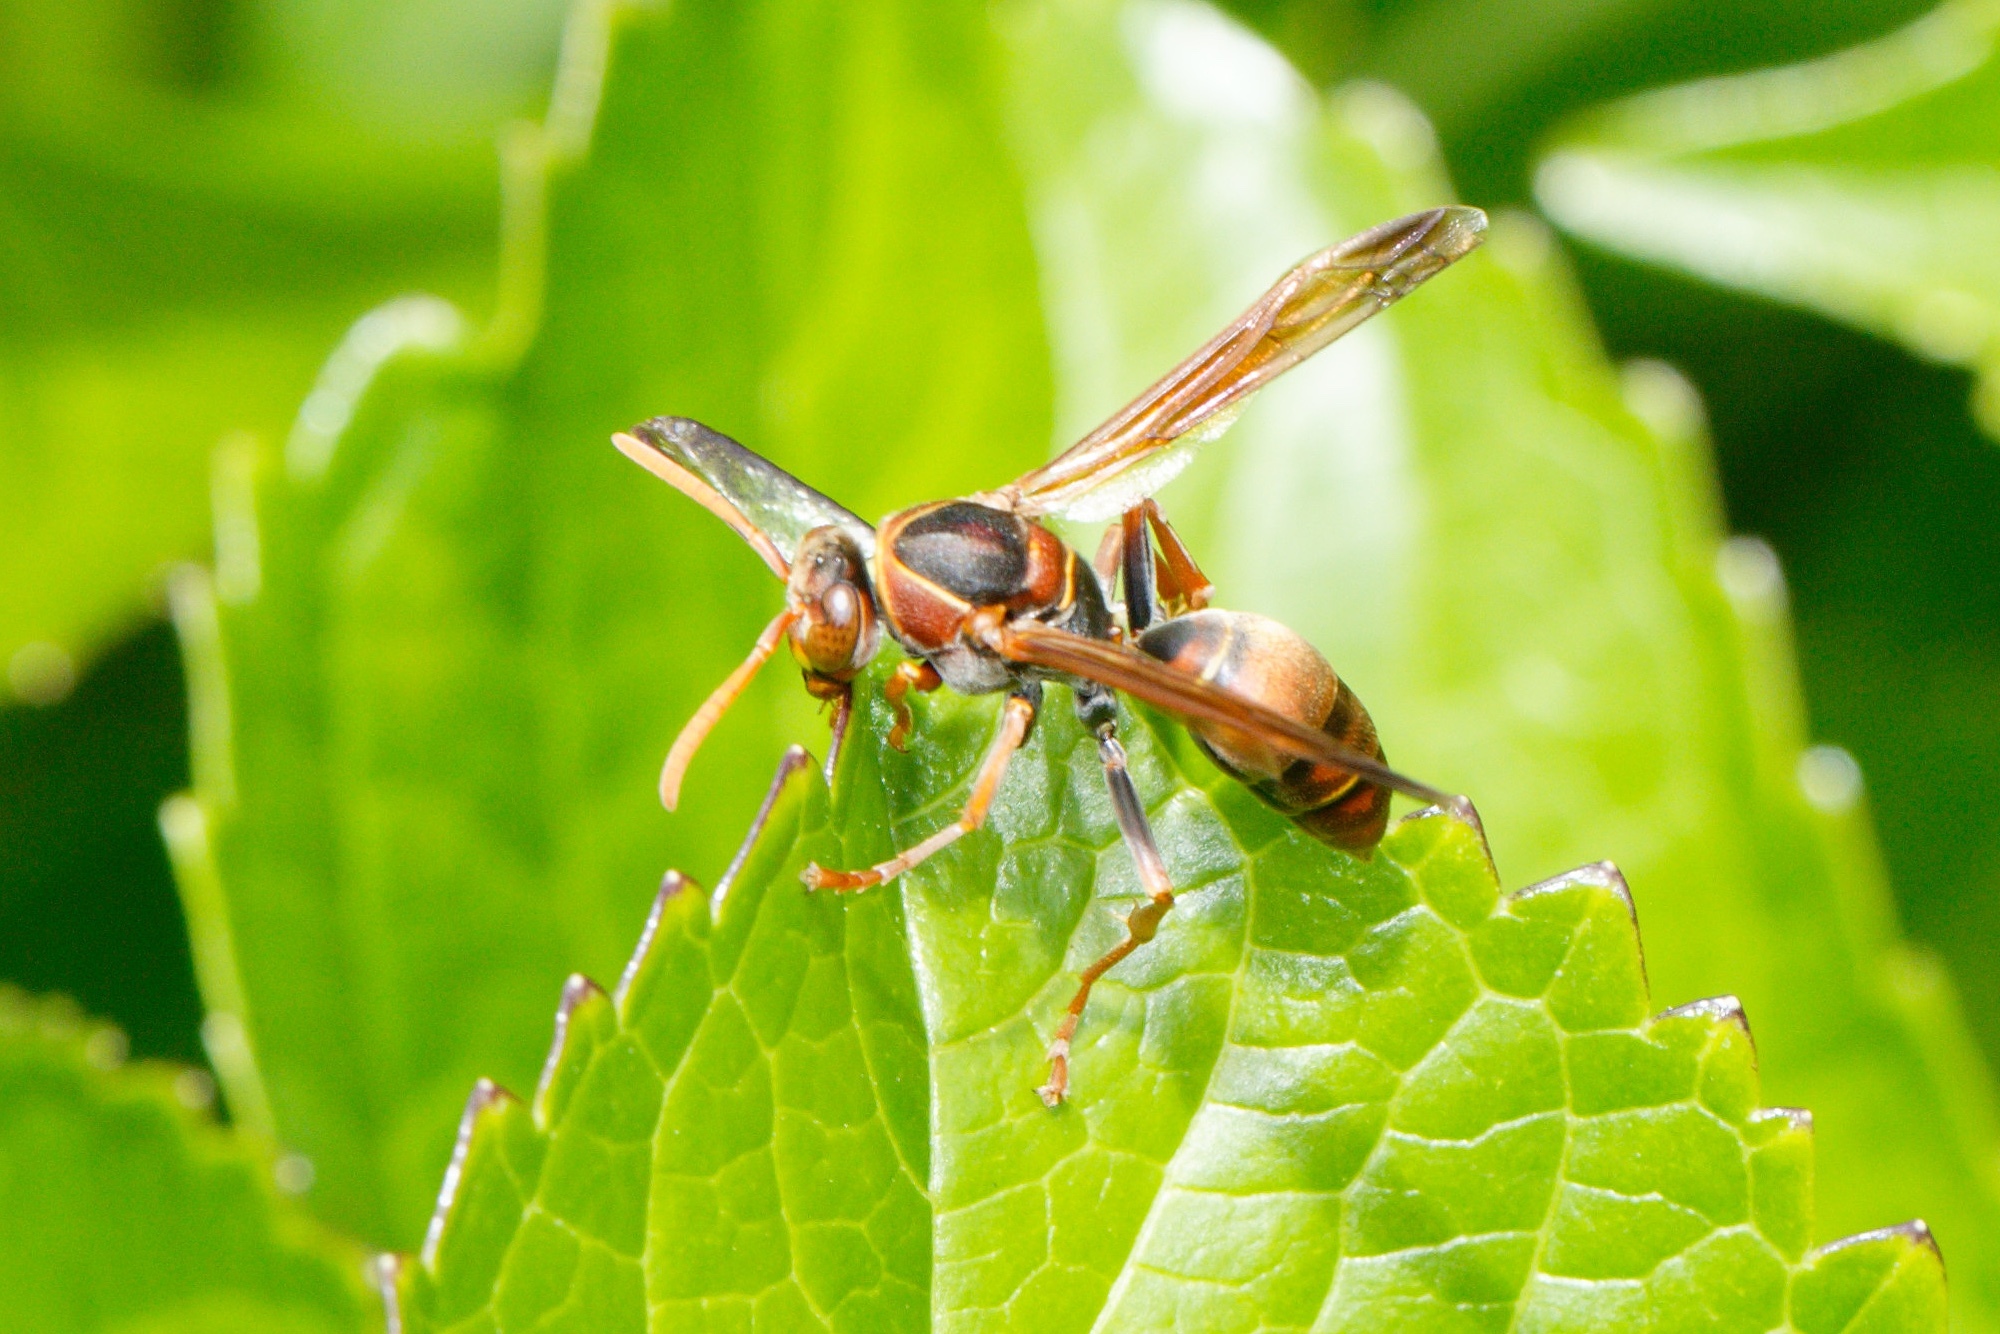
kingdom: Animalia
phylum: Arthropoda
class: Insecta
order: Hymenoptera
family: Eumenidae
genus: Polistes
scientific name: Polistes humilis
